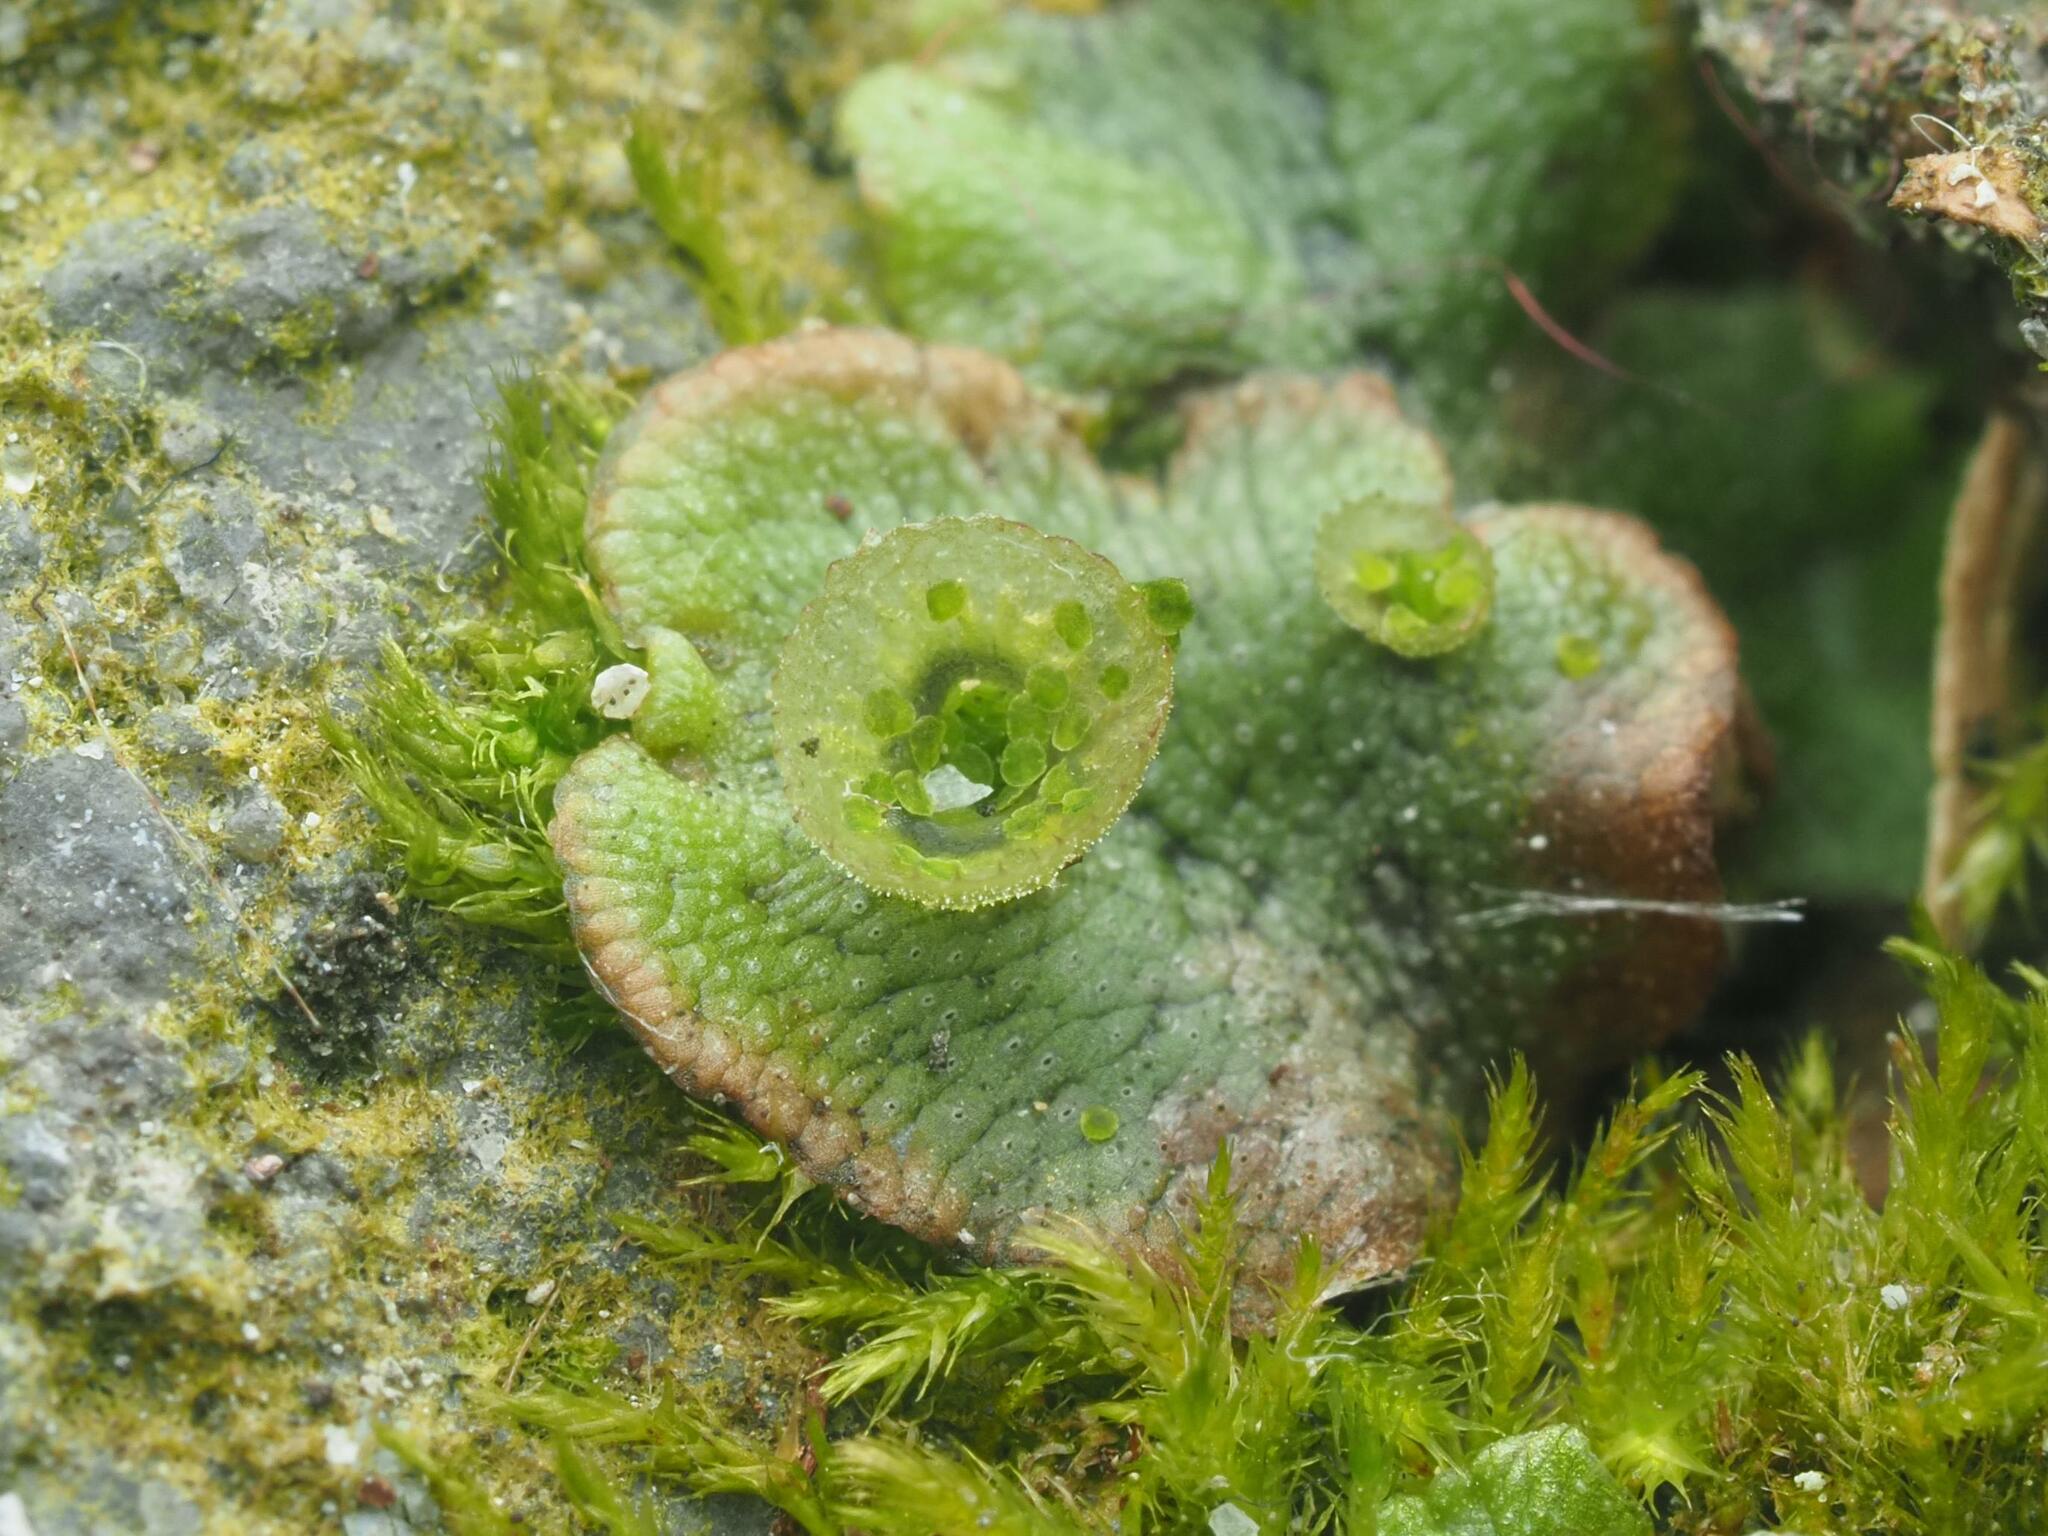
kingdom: Plantae
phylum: Marchantiophyta
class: Marchantiopsida
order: Marchantiales
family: Marchantiaceae
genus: Marchantia
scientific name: Marchantia polymorpha
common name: Common liverwort
